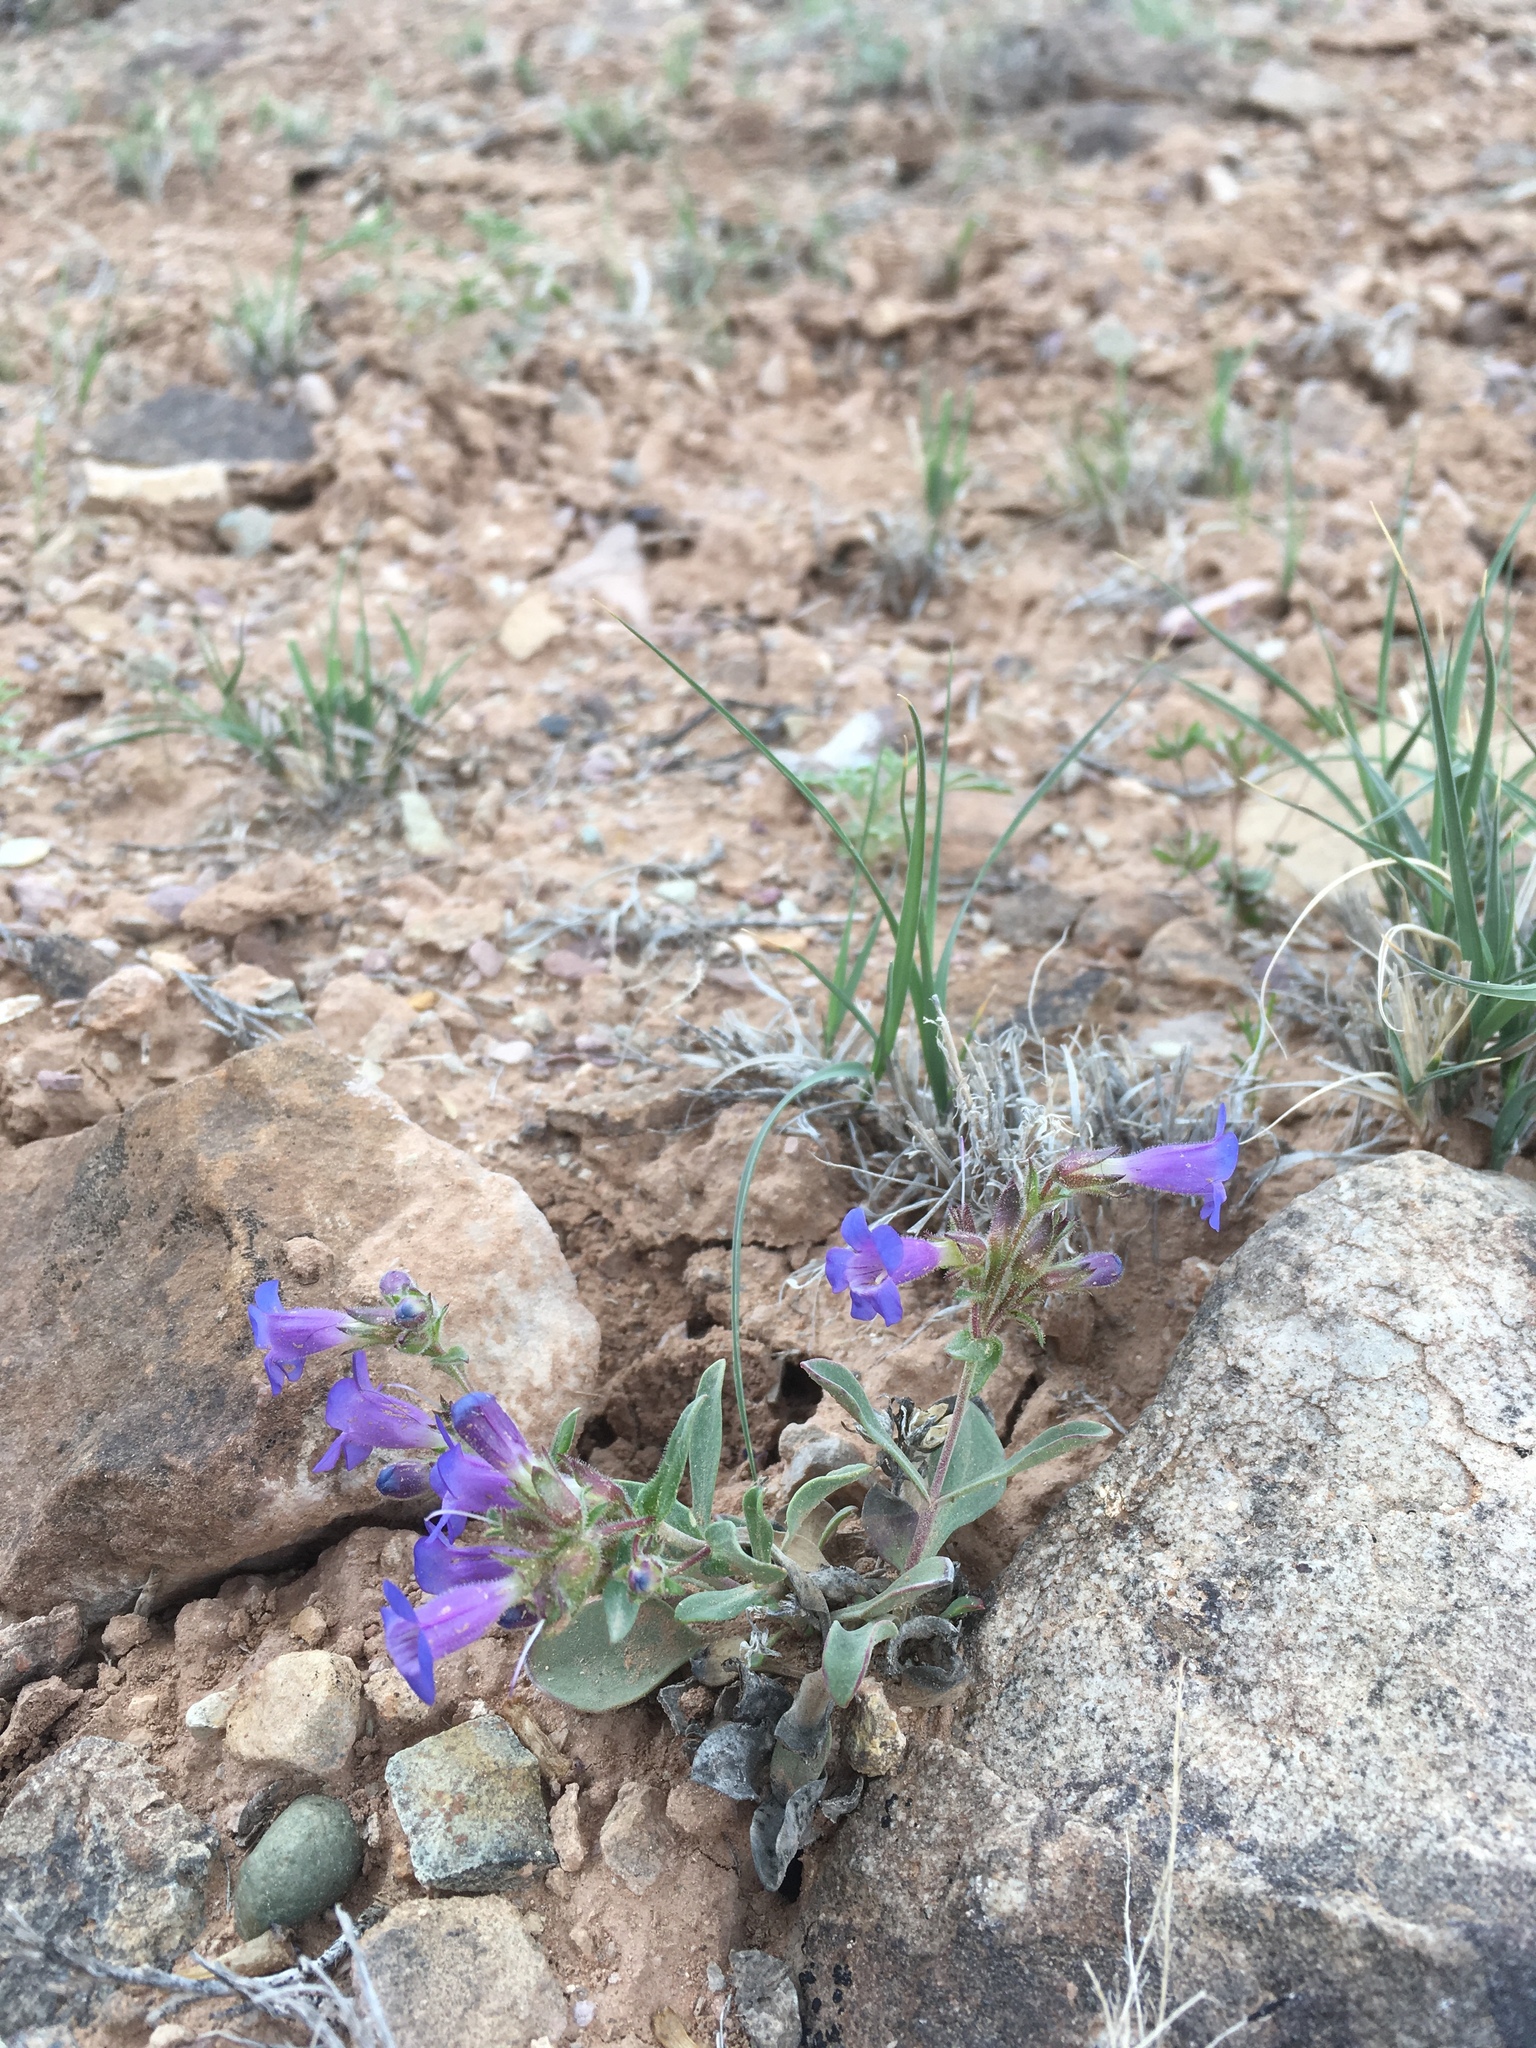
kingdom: Plantae
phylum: Tracheophyta
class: Magnoliopsida
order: Lamiales
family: Plantaginaceae
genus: Penstemon
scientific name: Penstemon moffattii
